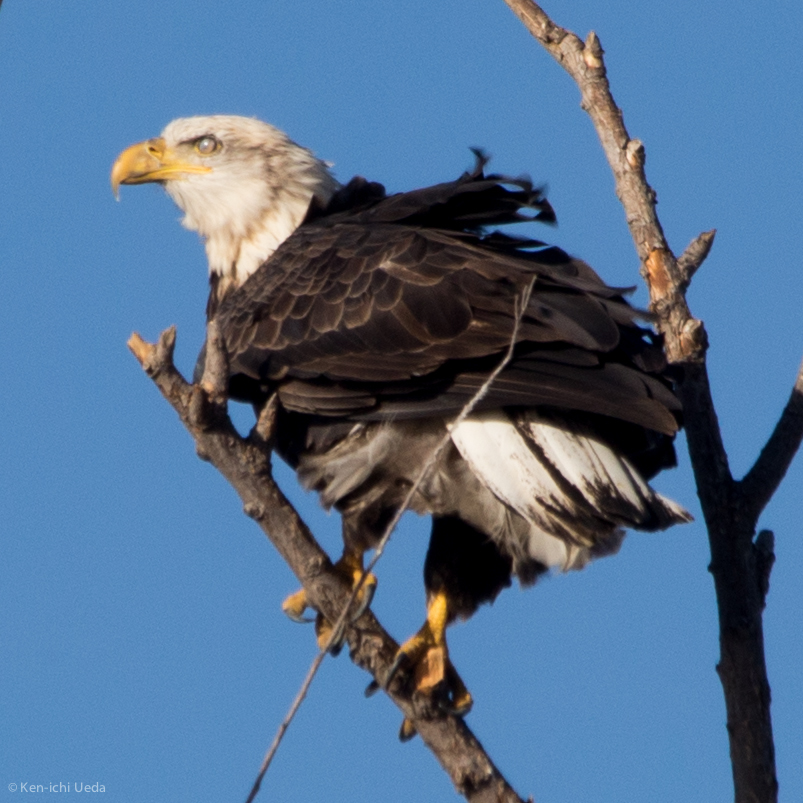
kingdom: Animalia
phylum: Chordata
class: Aves
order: Accipitriformes
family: Accipitridae
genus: Haliaeetus
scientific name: Haliaeetus leucocephalus
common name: Bald eagle
